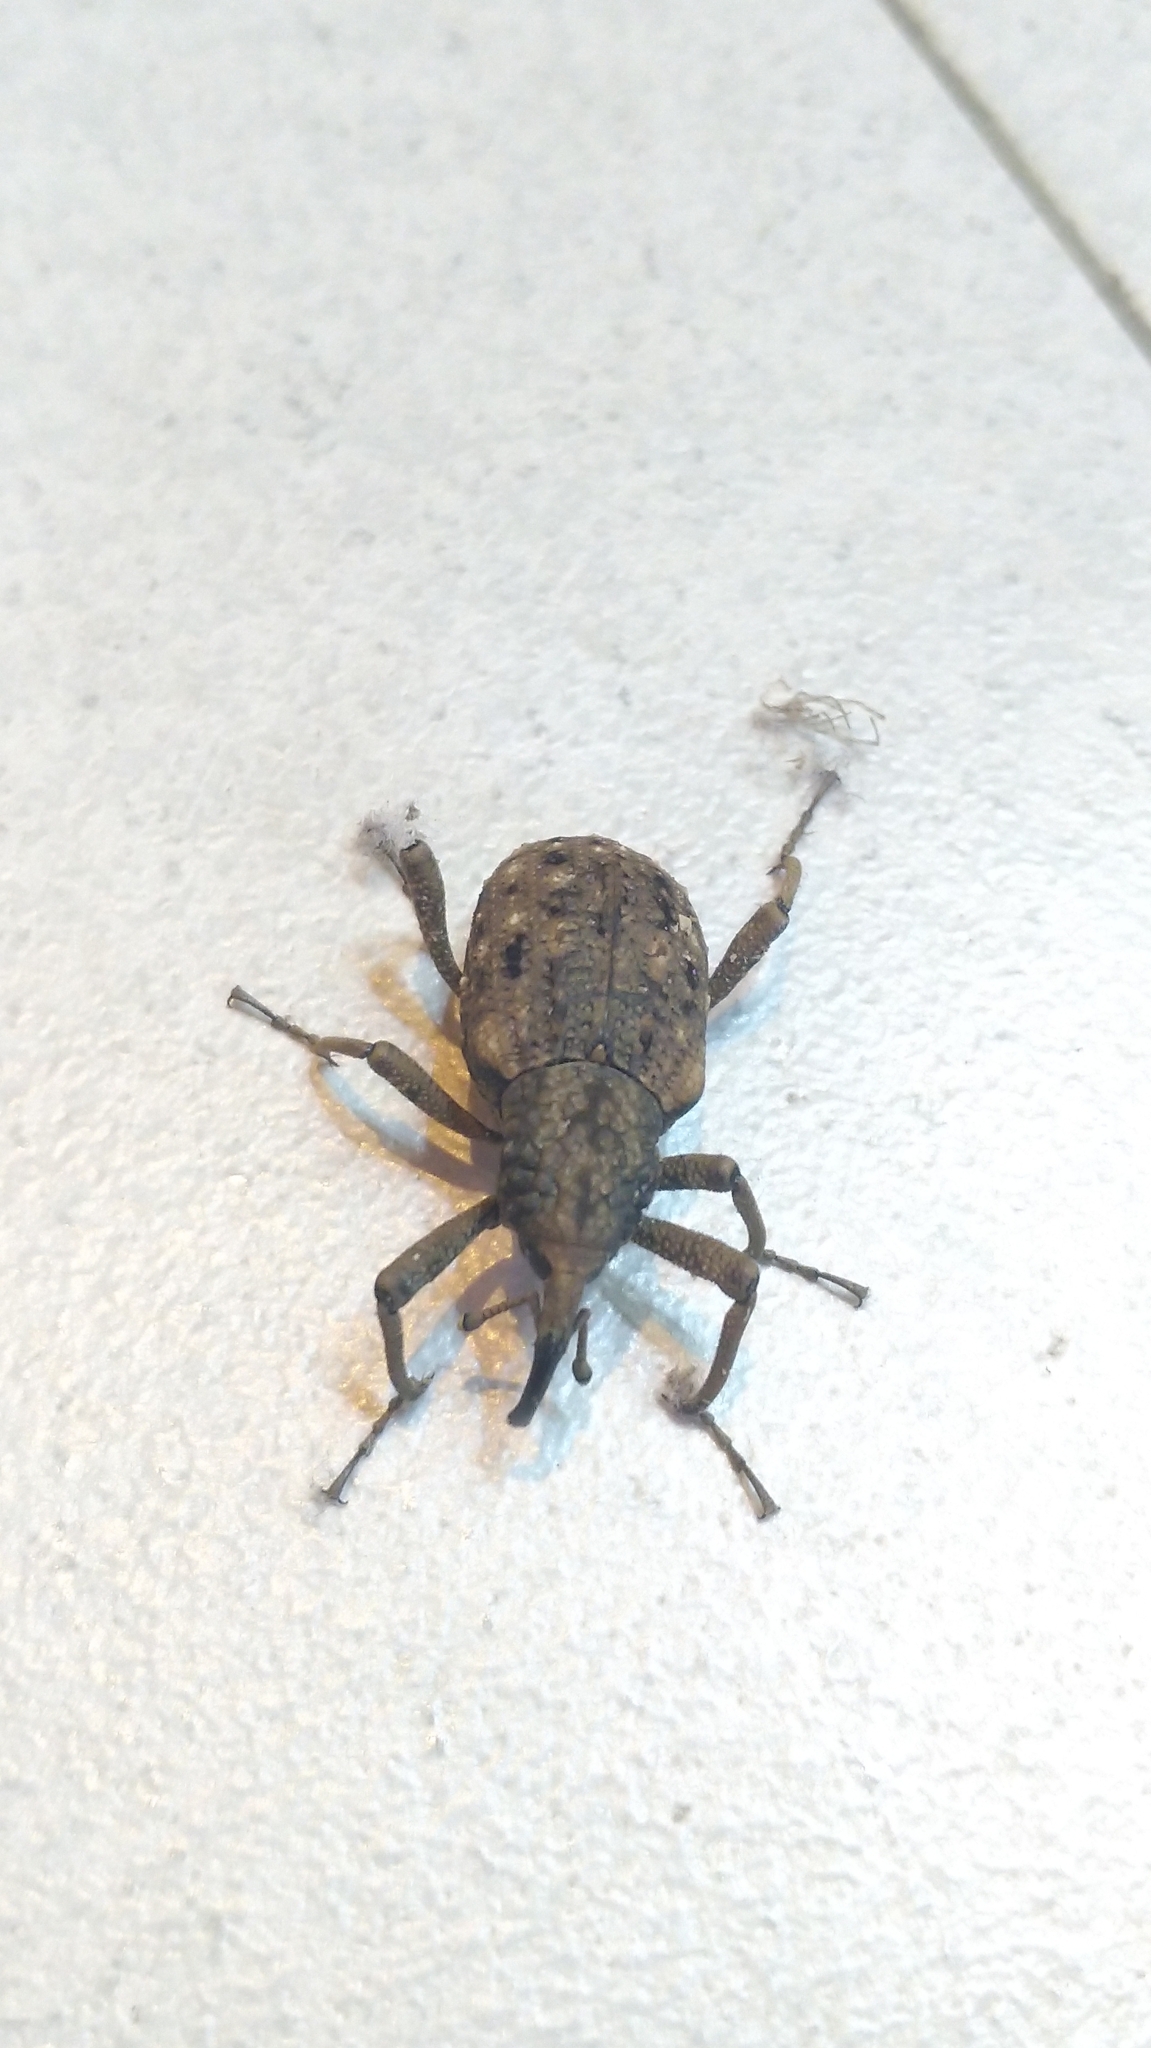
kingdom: Animalia
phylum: Arthropoda
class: Insecta
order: Coleoptera
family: Dryophthoridae
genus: Sipalinus
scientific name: Sipalinus gigas
